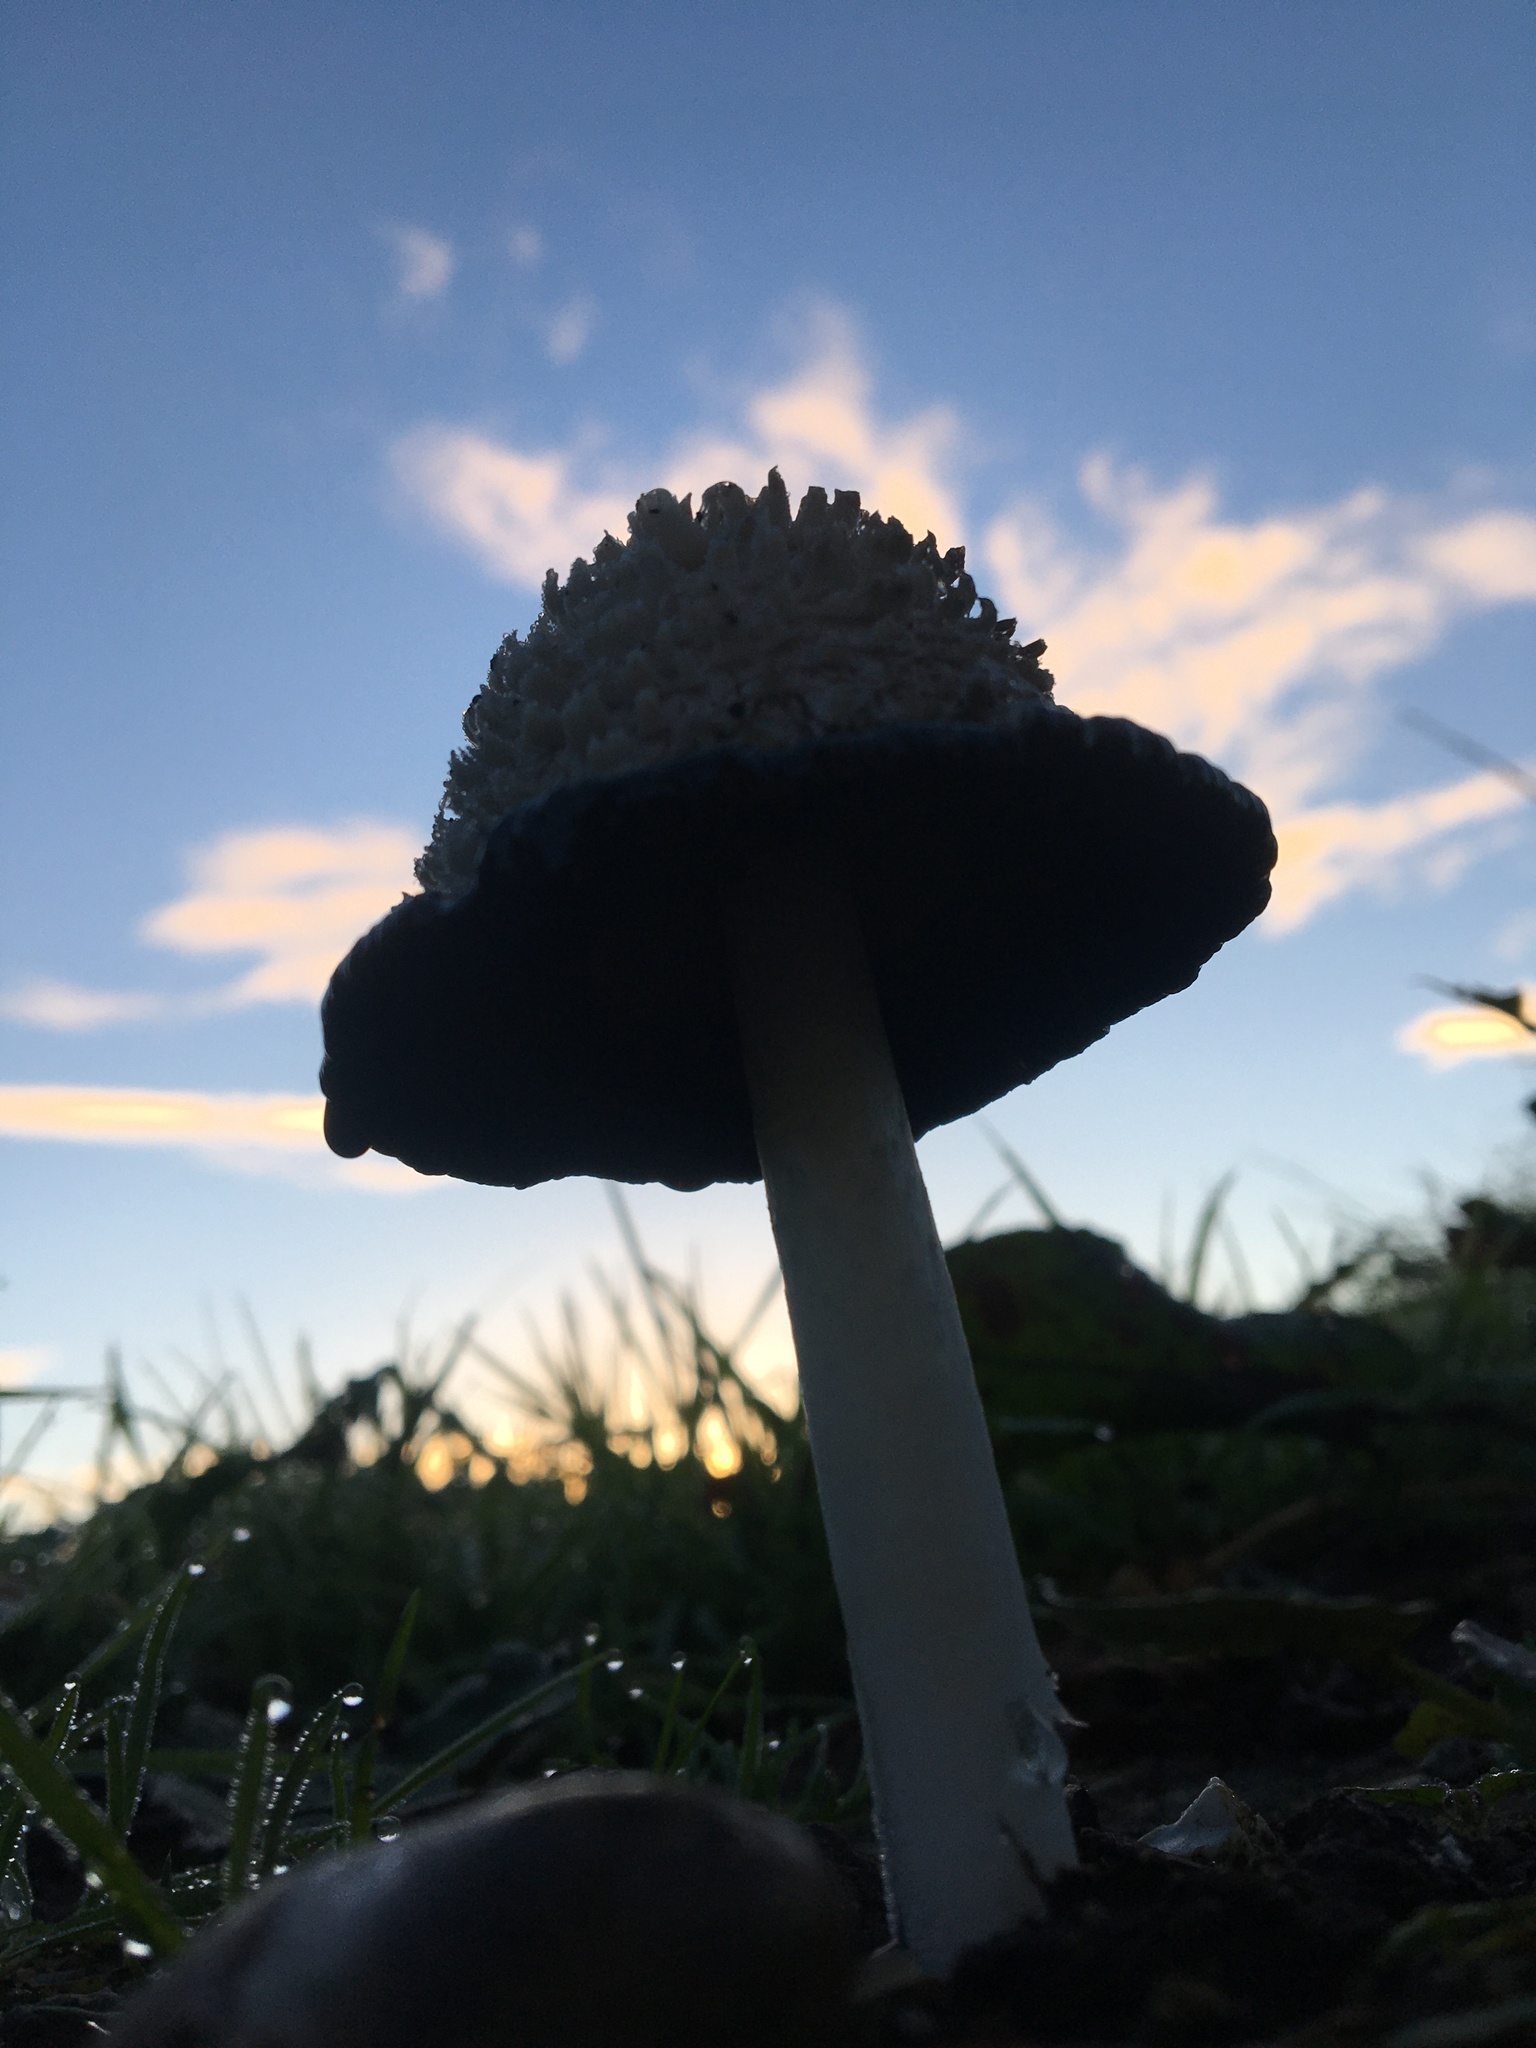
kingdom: Fungi
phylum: Basidiomycota
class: Agaricomycetes
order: Agaricales
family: Agaricaceae
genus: Coprinus
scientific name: Coprinus comatus
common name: Lawyer's wig
